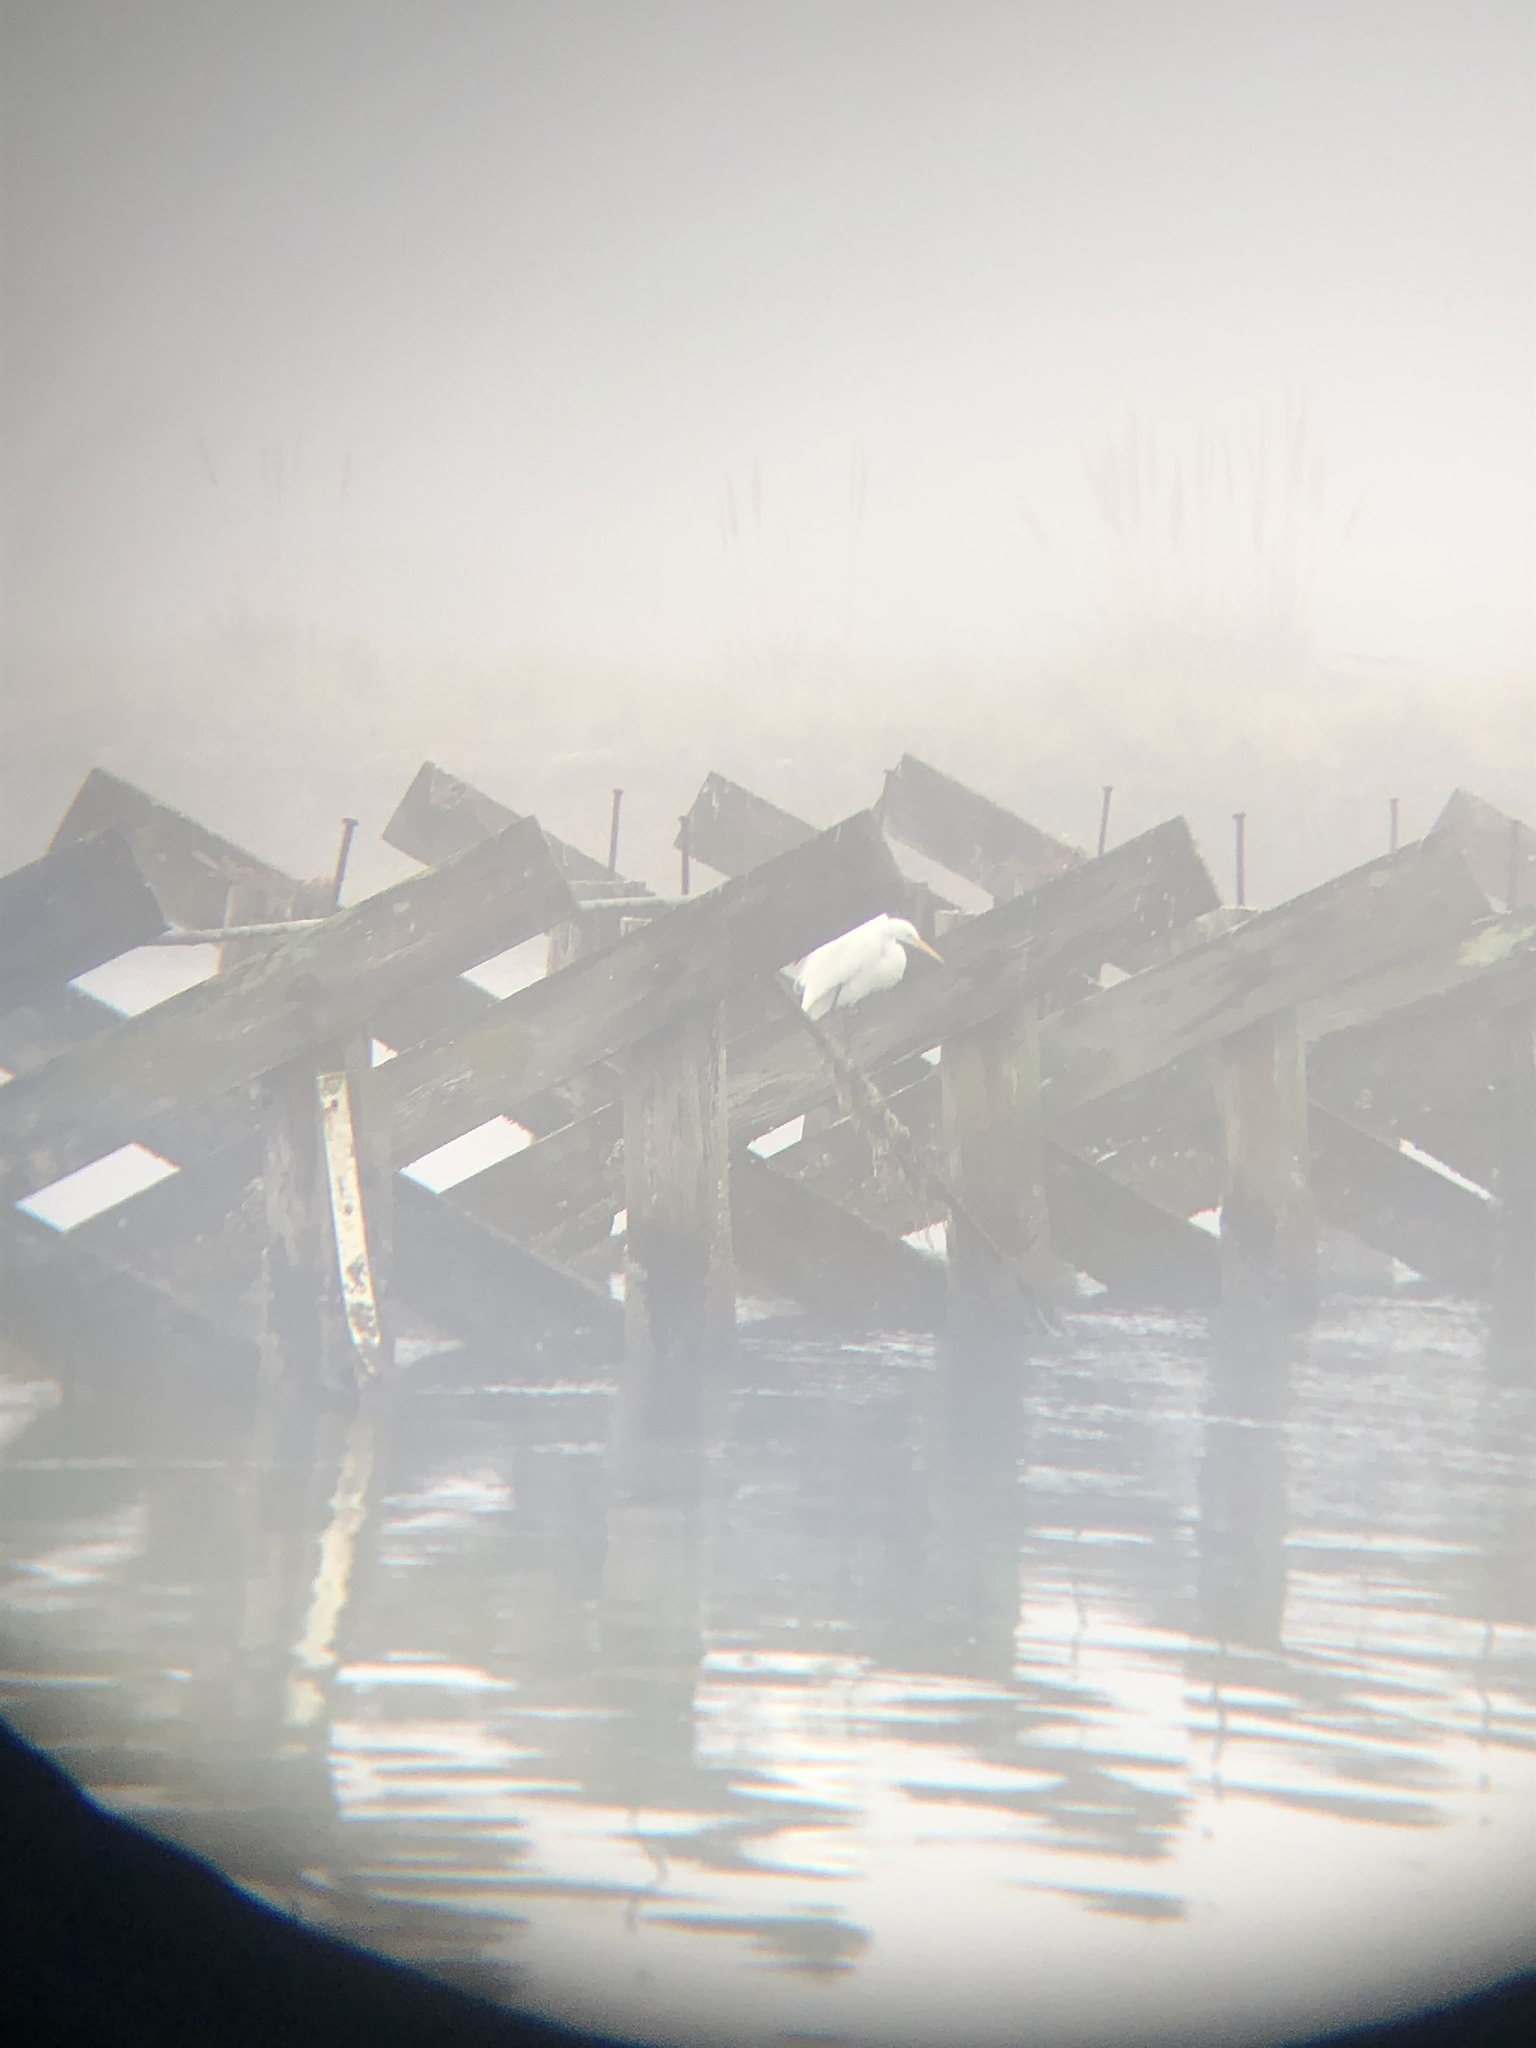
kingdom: Animalia
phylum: Chordata
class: Aves
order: Pelecaniformes
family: Ardeidae
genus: Ardea
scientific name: Ardea alba
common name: Great egret
